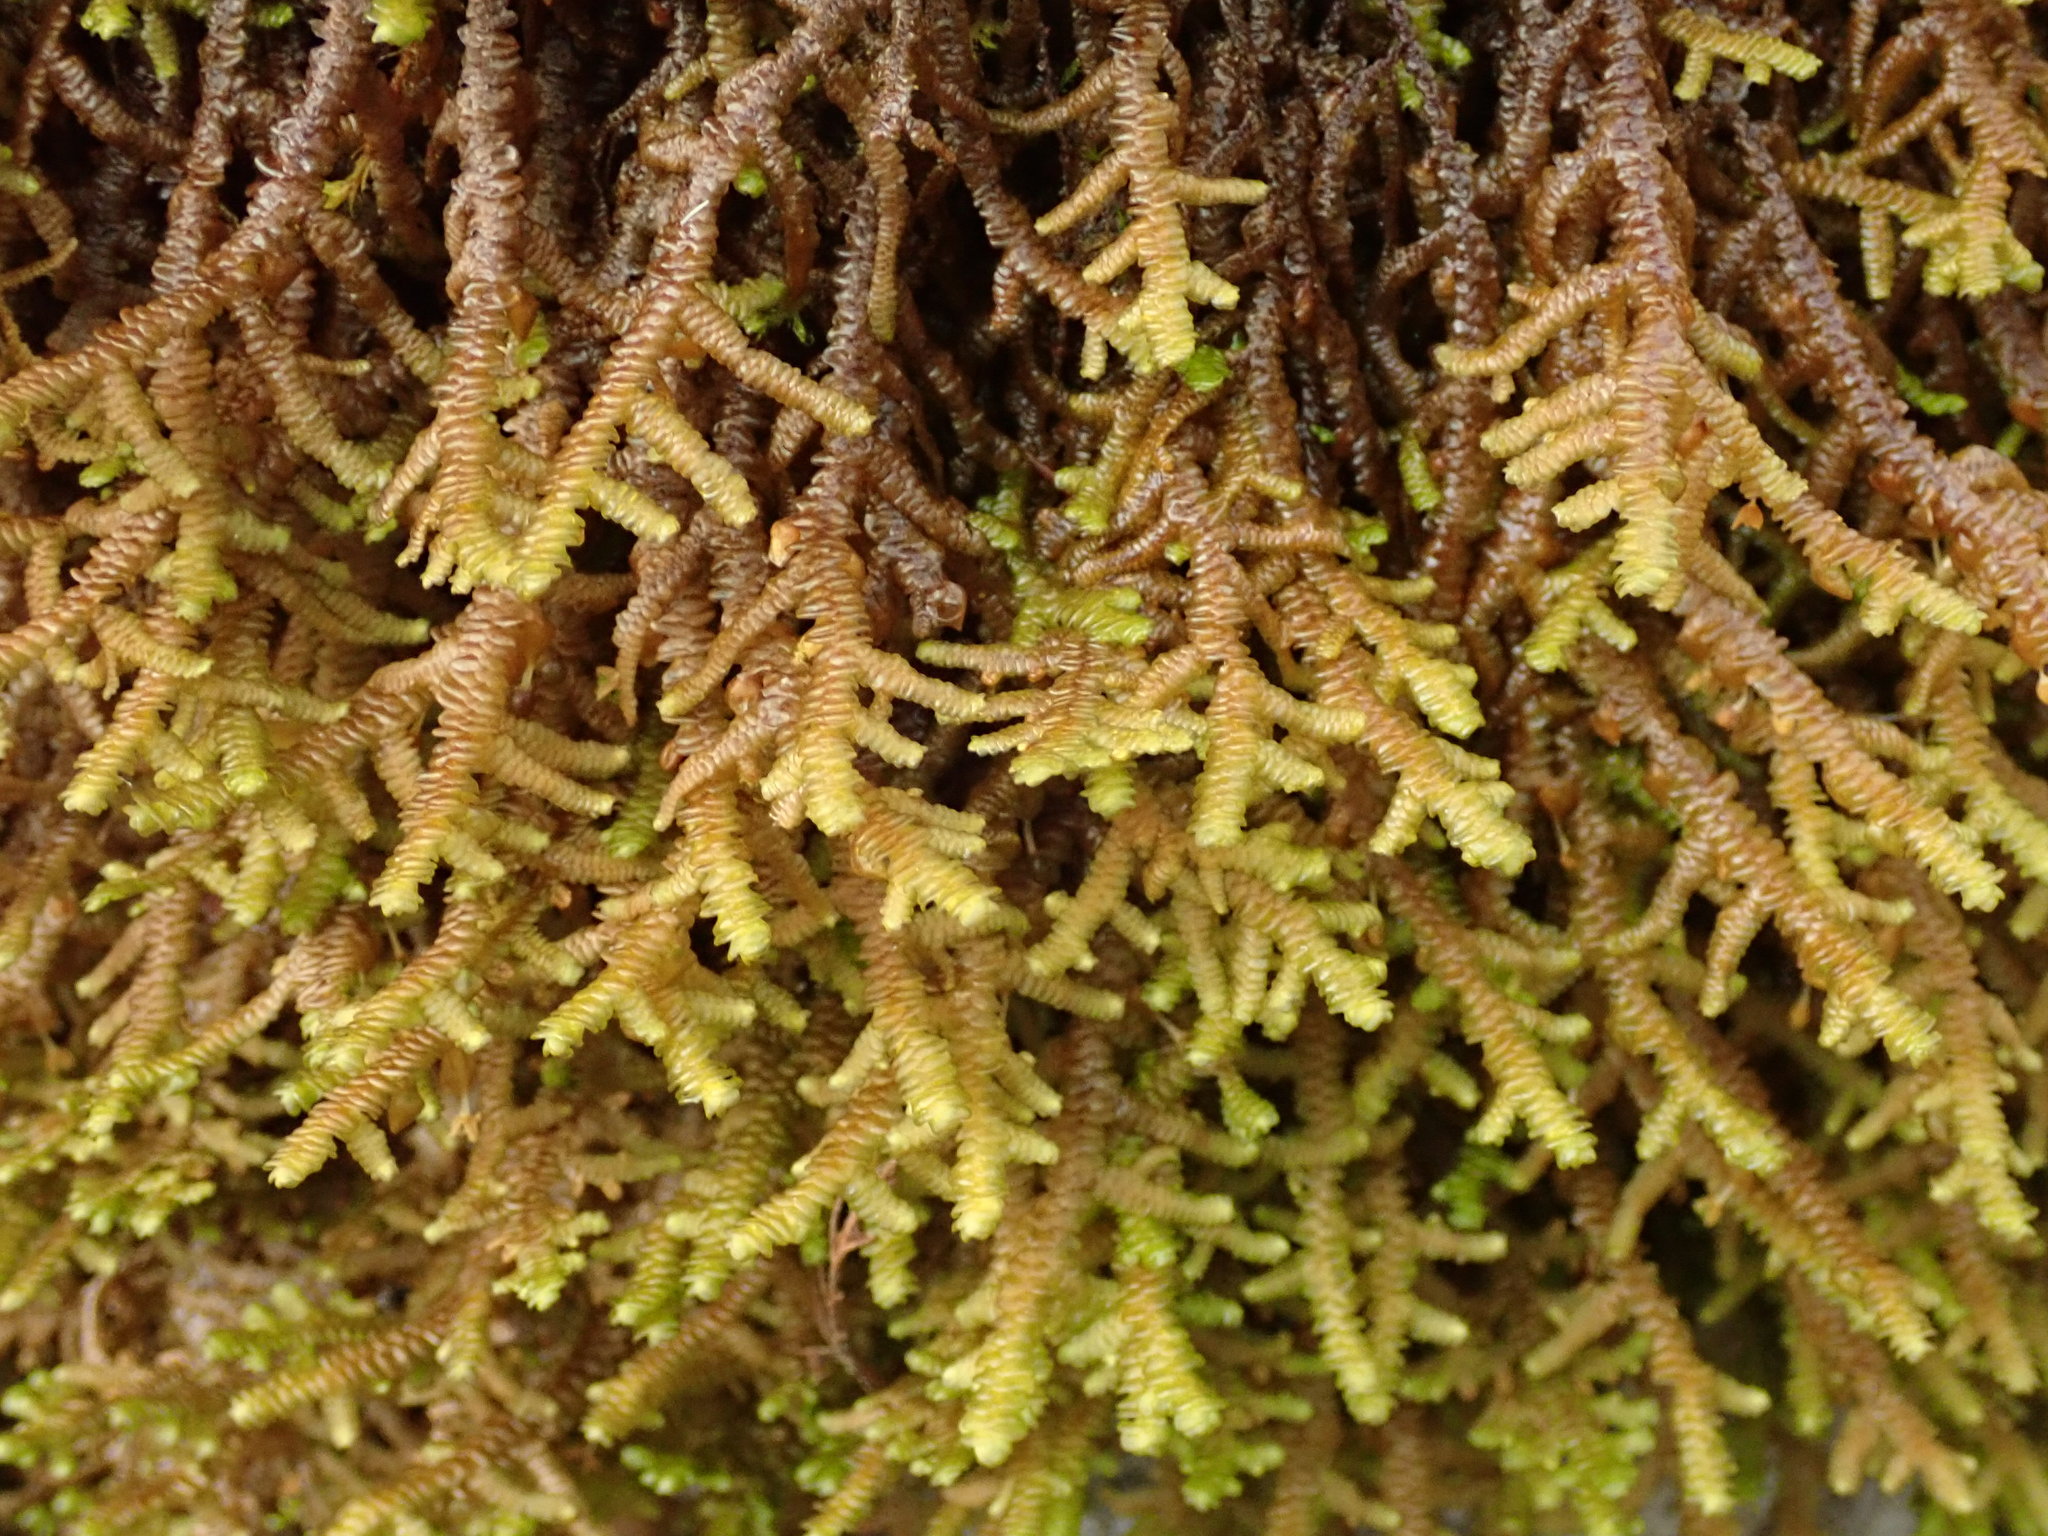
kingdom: Plantae
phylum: Marchantiophyta
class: Jungermanniopsida
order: Porellales
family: Porellaceae
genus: Porella
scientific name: Porella navicularis
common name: Tree ruffle liverwort
